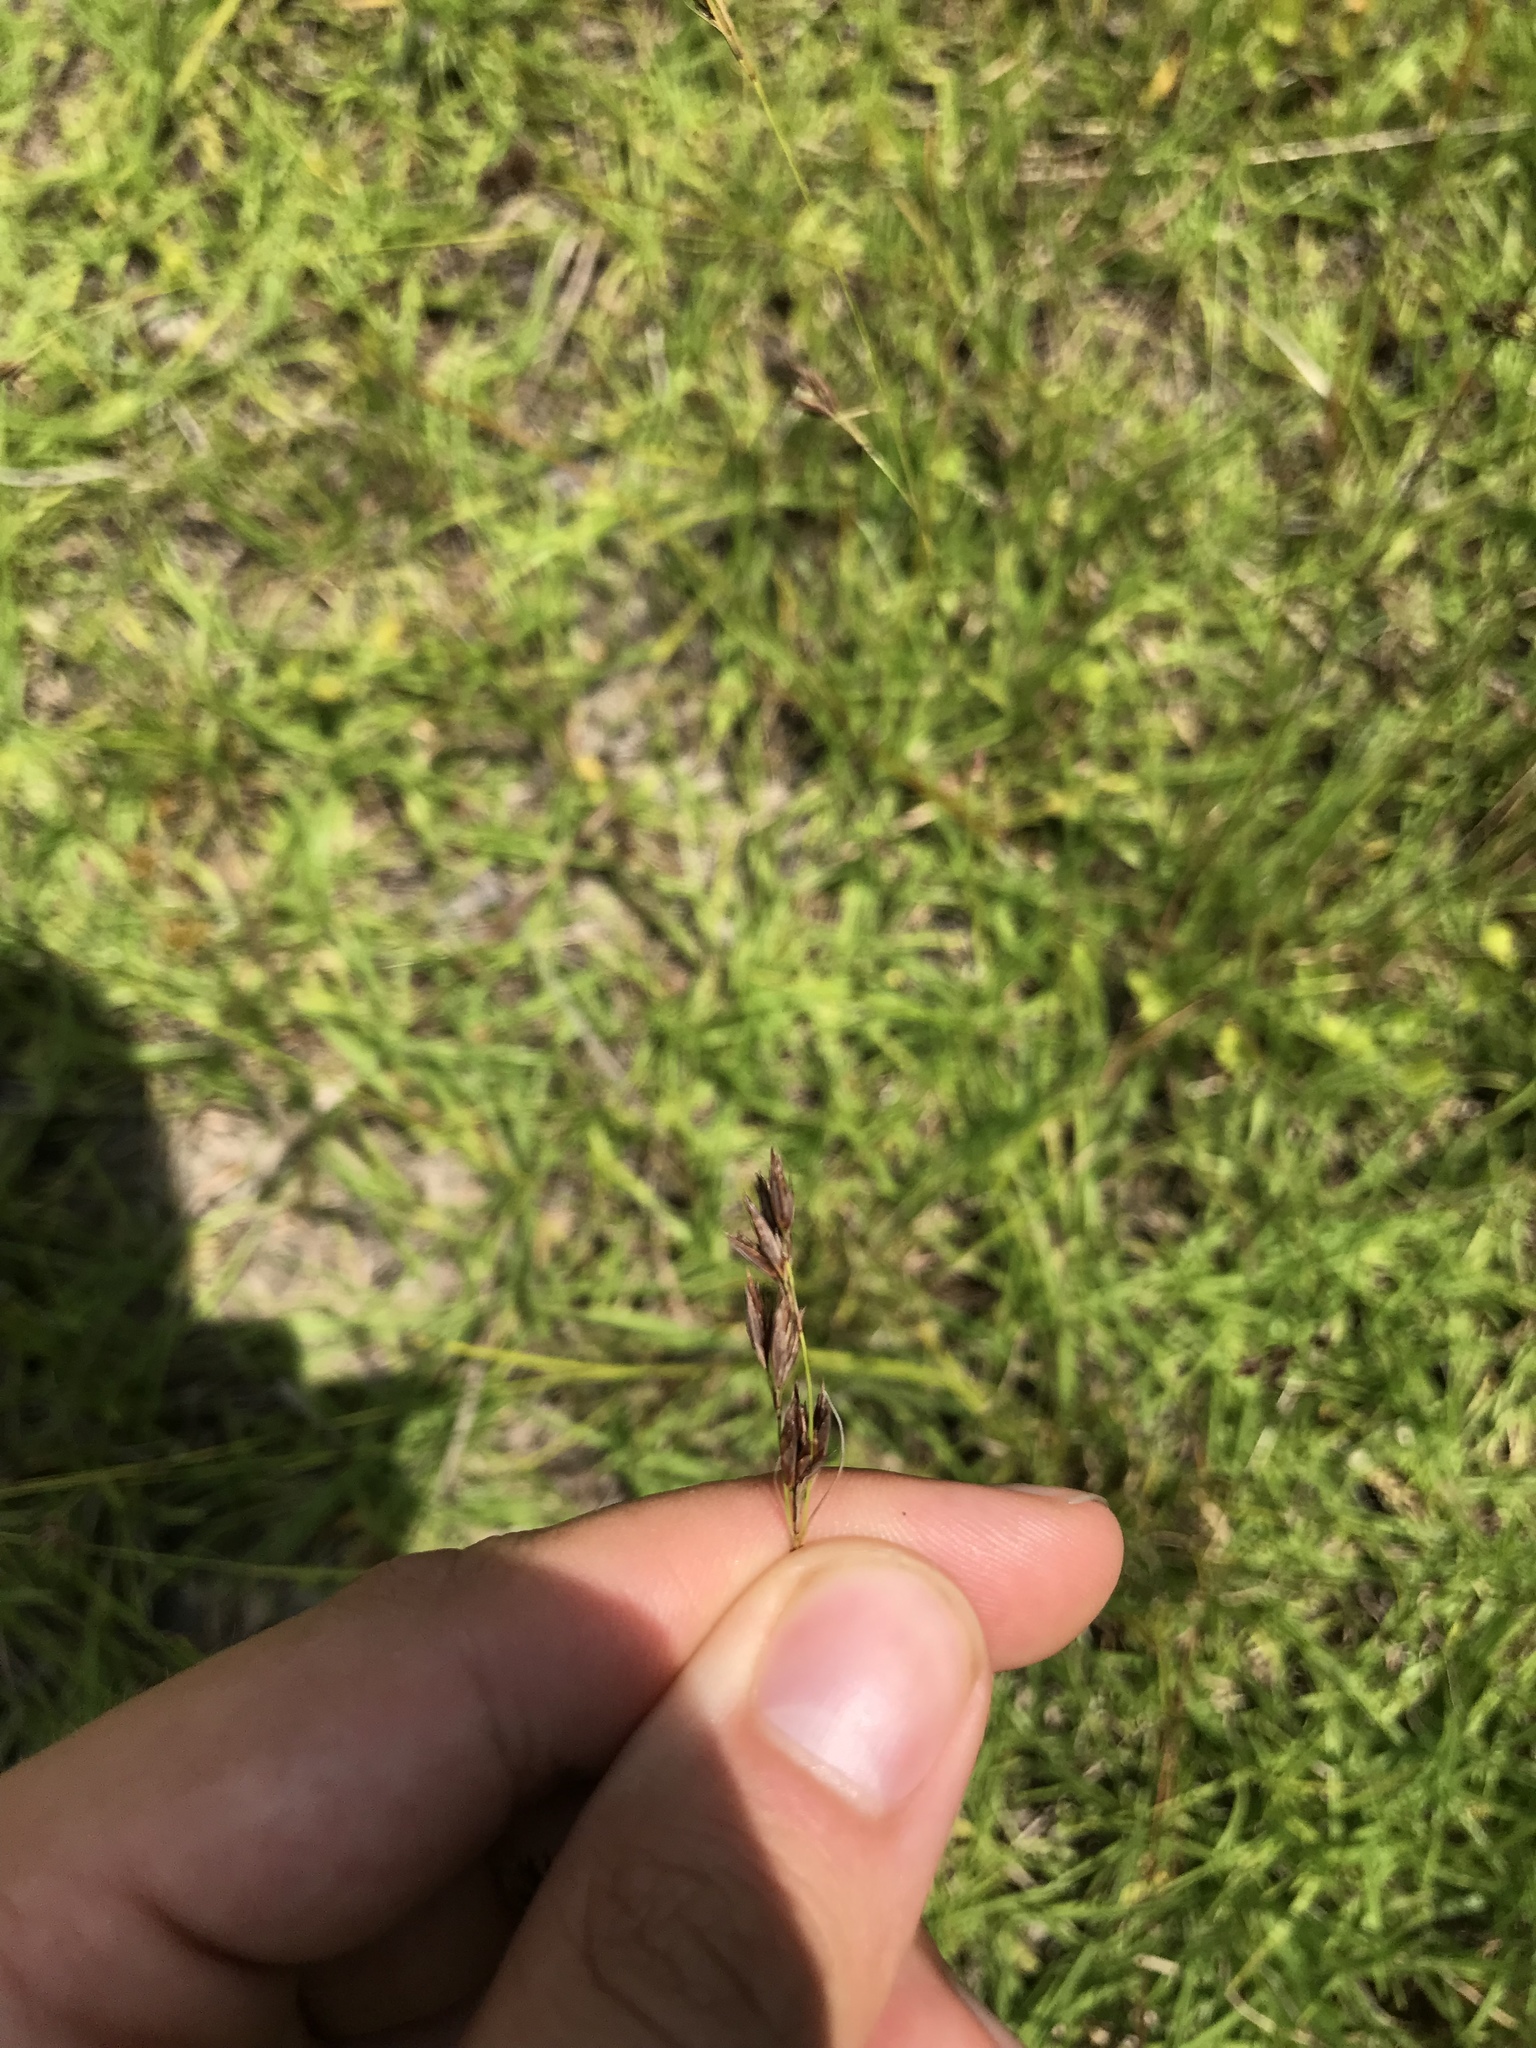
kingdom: Plantae
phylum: Tracheophyta
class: Liliopsida
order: Poales
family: Cyperaceae
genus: Rhynchospora
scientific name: Rhynchospora inexpansa
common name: Nodding beaksedge
